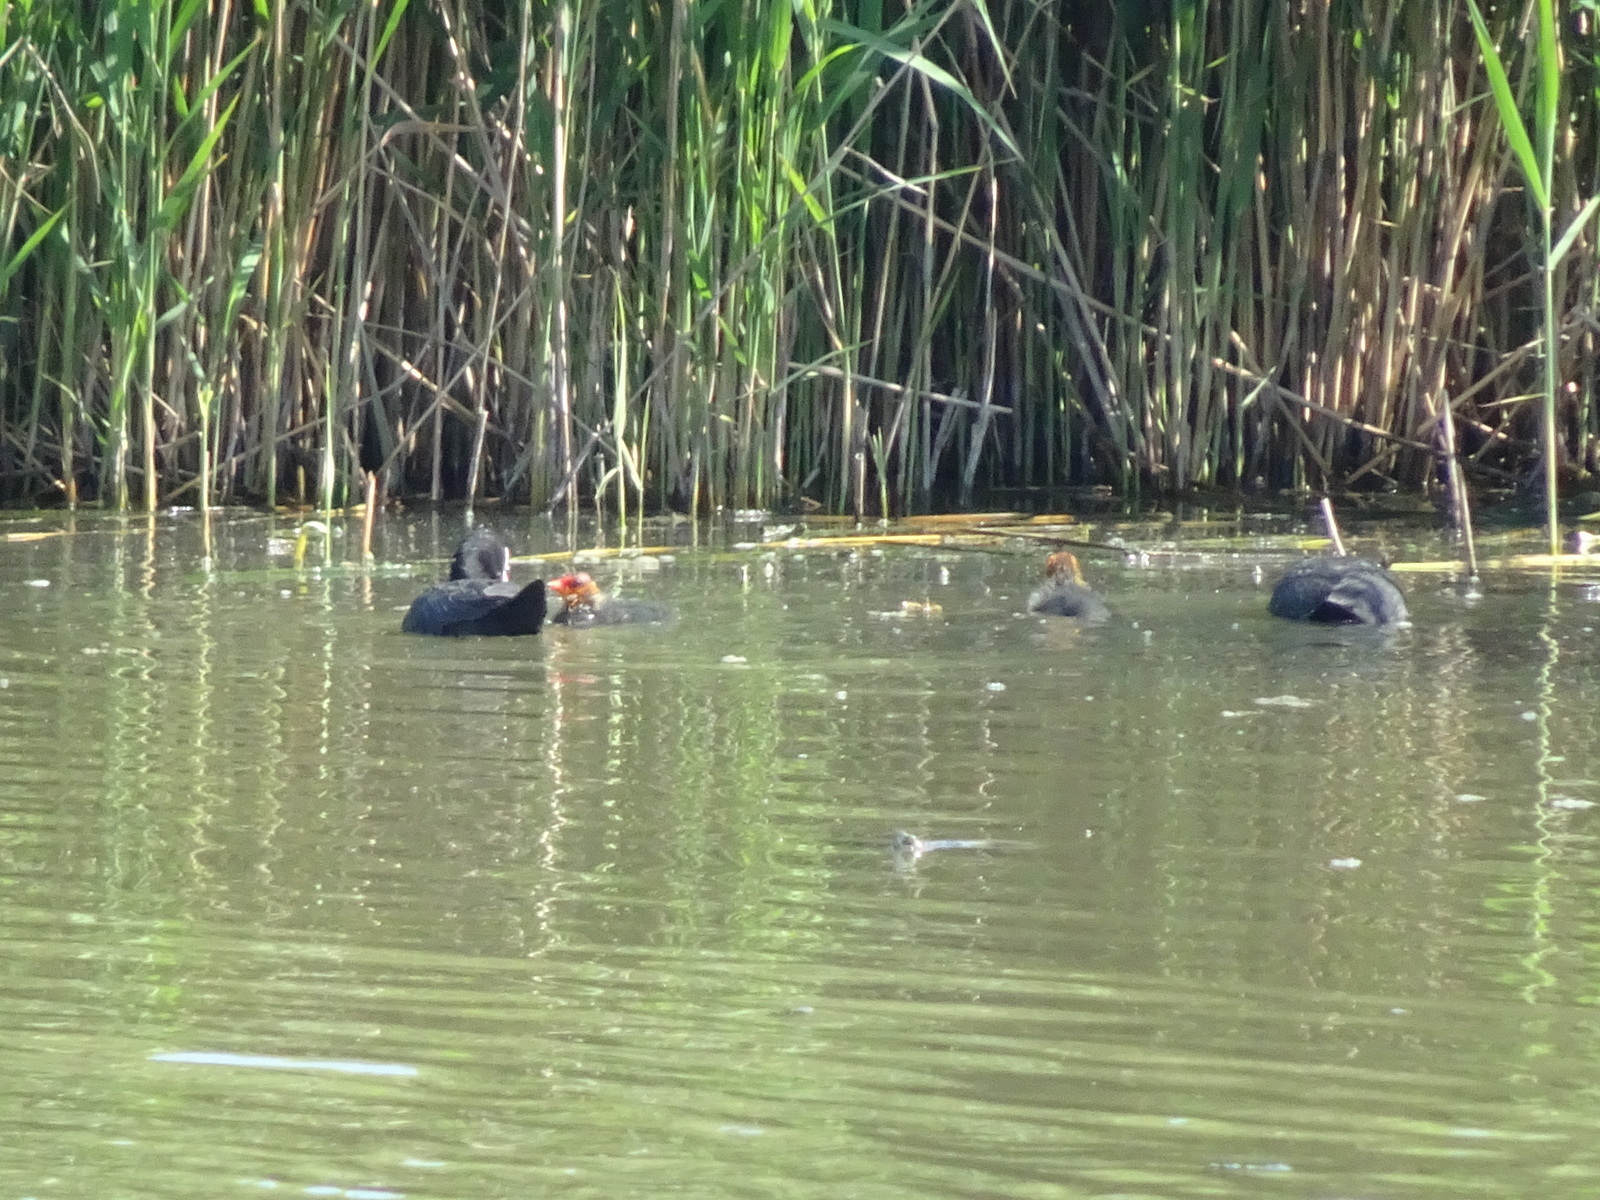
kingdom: Animalia
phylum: Chordata
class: Aves
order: Gruiformes
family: Rallidae
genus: Fulica
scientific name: Fulica atra
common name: Eurasian coot
